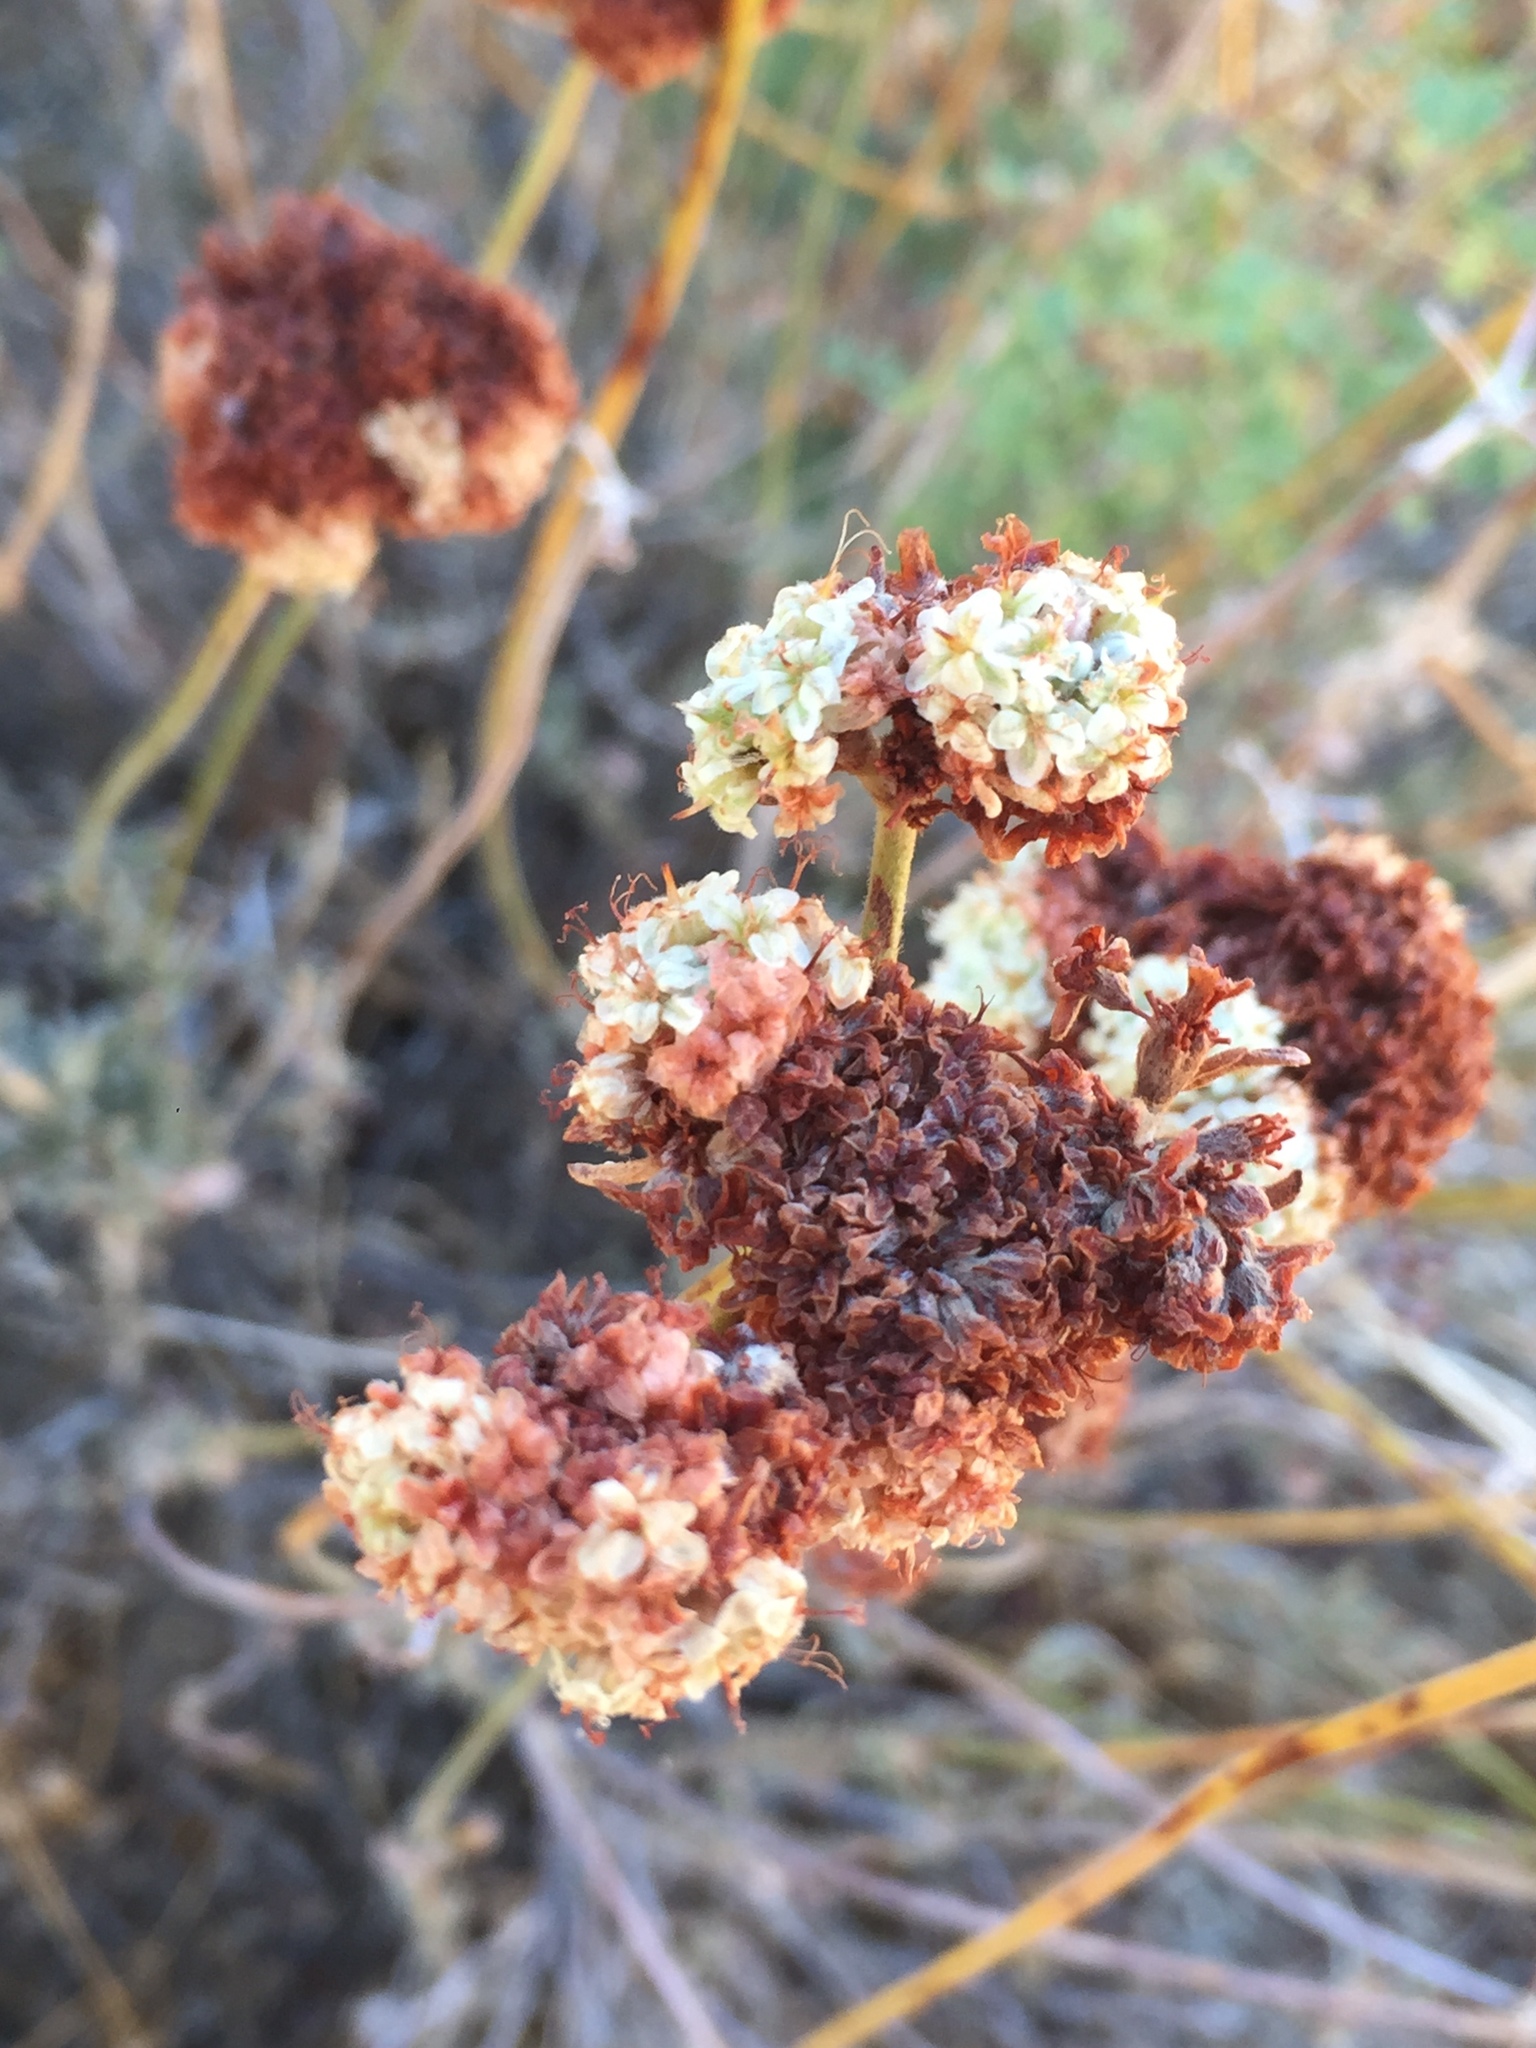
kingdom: Plantae
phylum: Tracheophyta
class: Magnoliopsida
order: Caryophyllales
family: Polygonaceae
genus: Eriogonum
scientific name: Eriogonum fasciculatum
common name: California wild buckwheat
